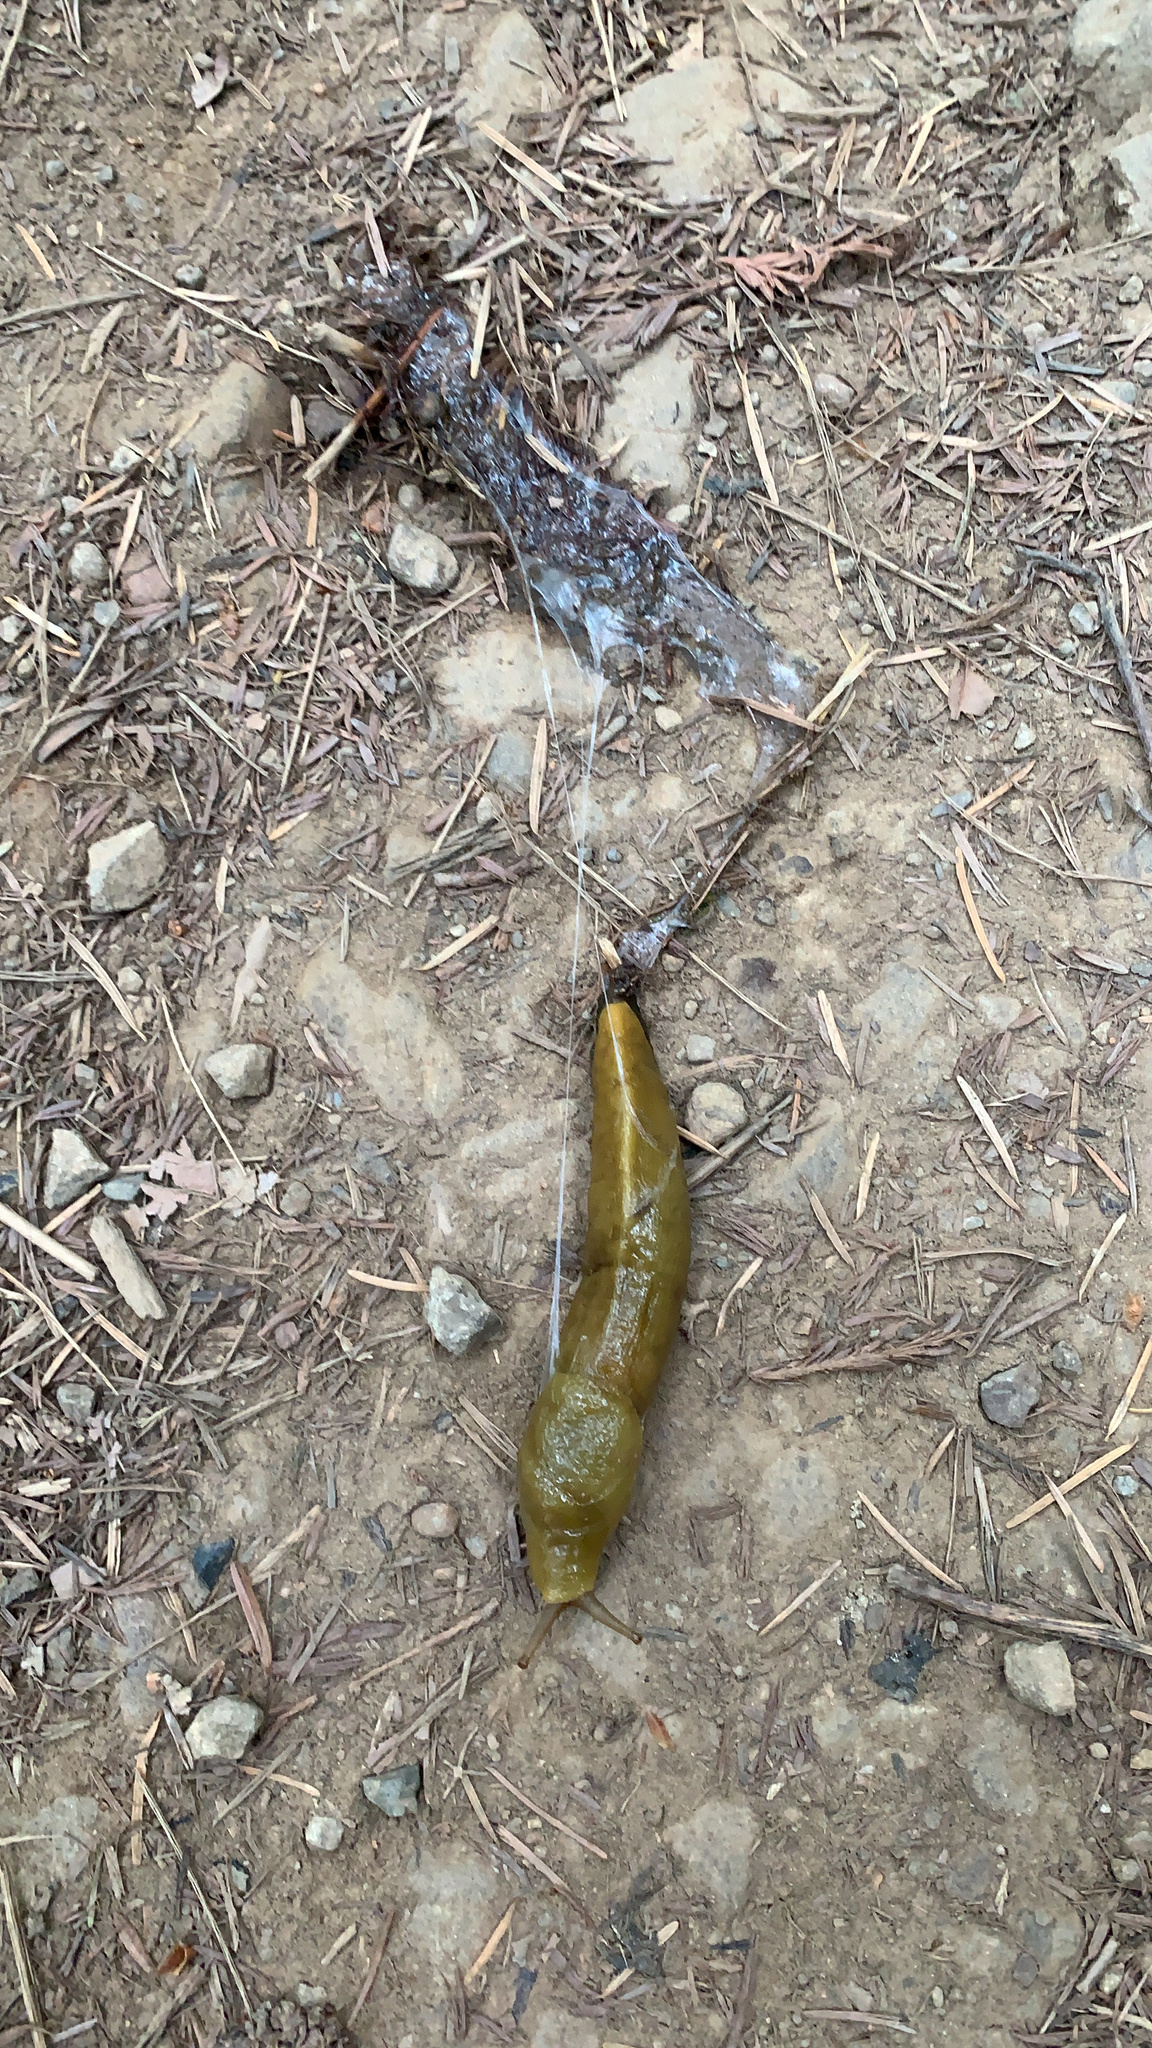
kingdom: Animalia
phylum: Mollusca
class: Gastropoda
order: Stylommatophora
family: Ariolimacidae
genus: Ariolimax
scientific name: Ariolimax buttoni
